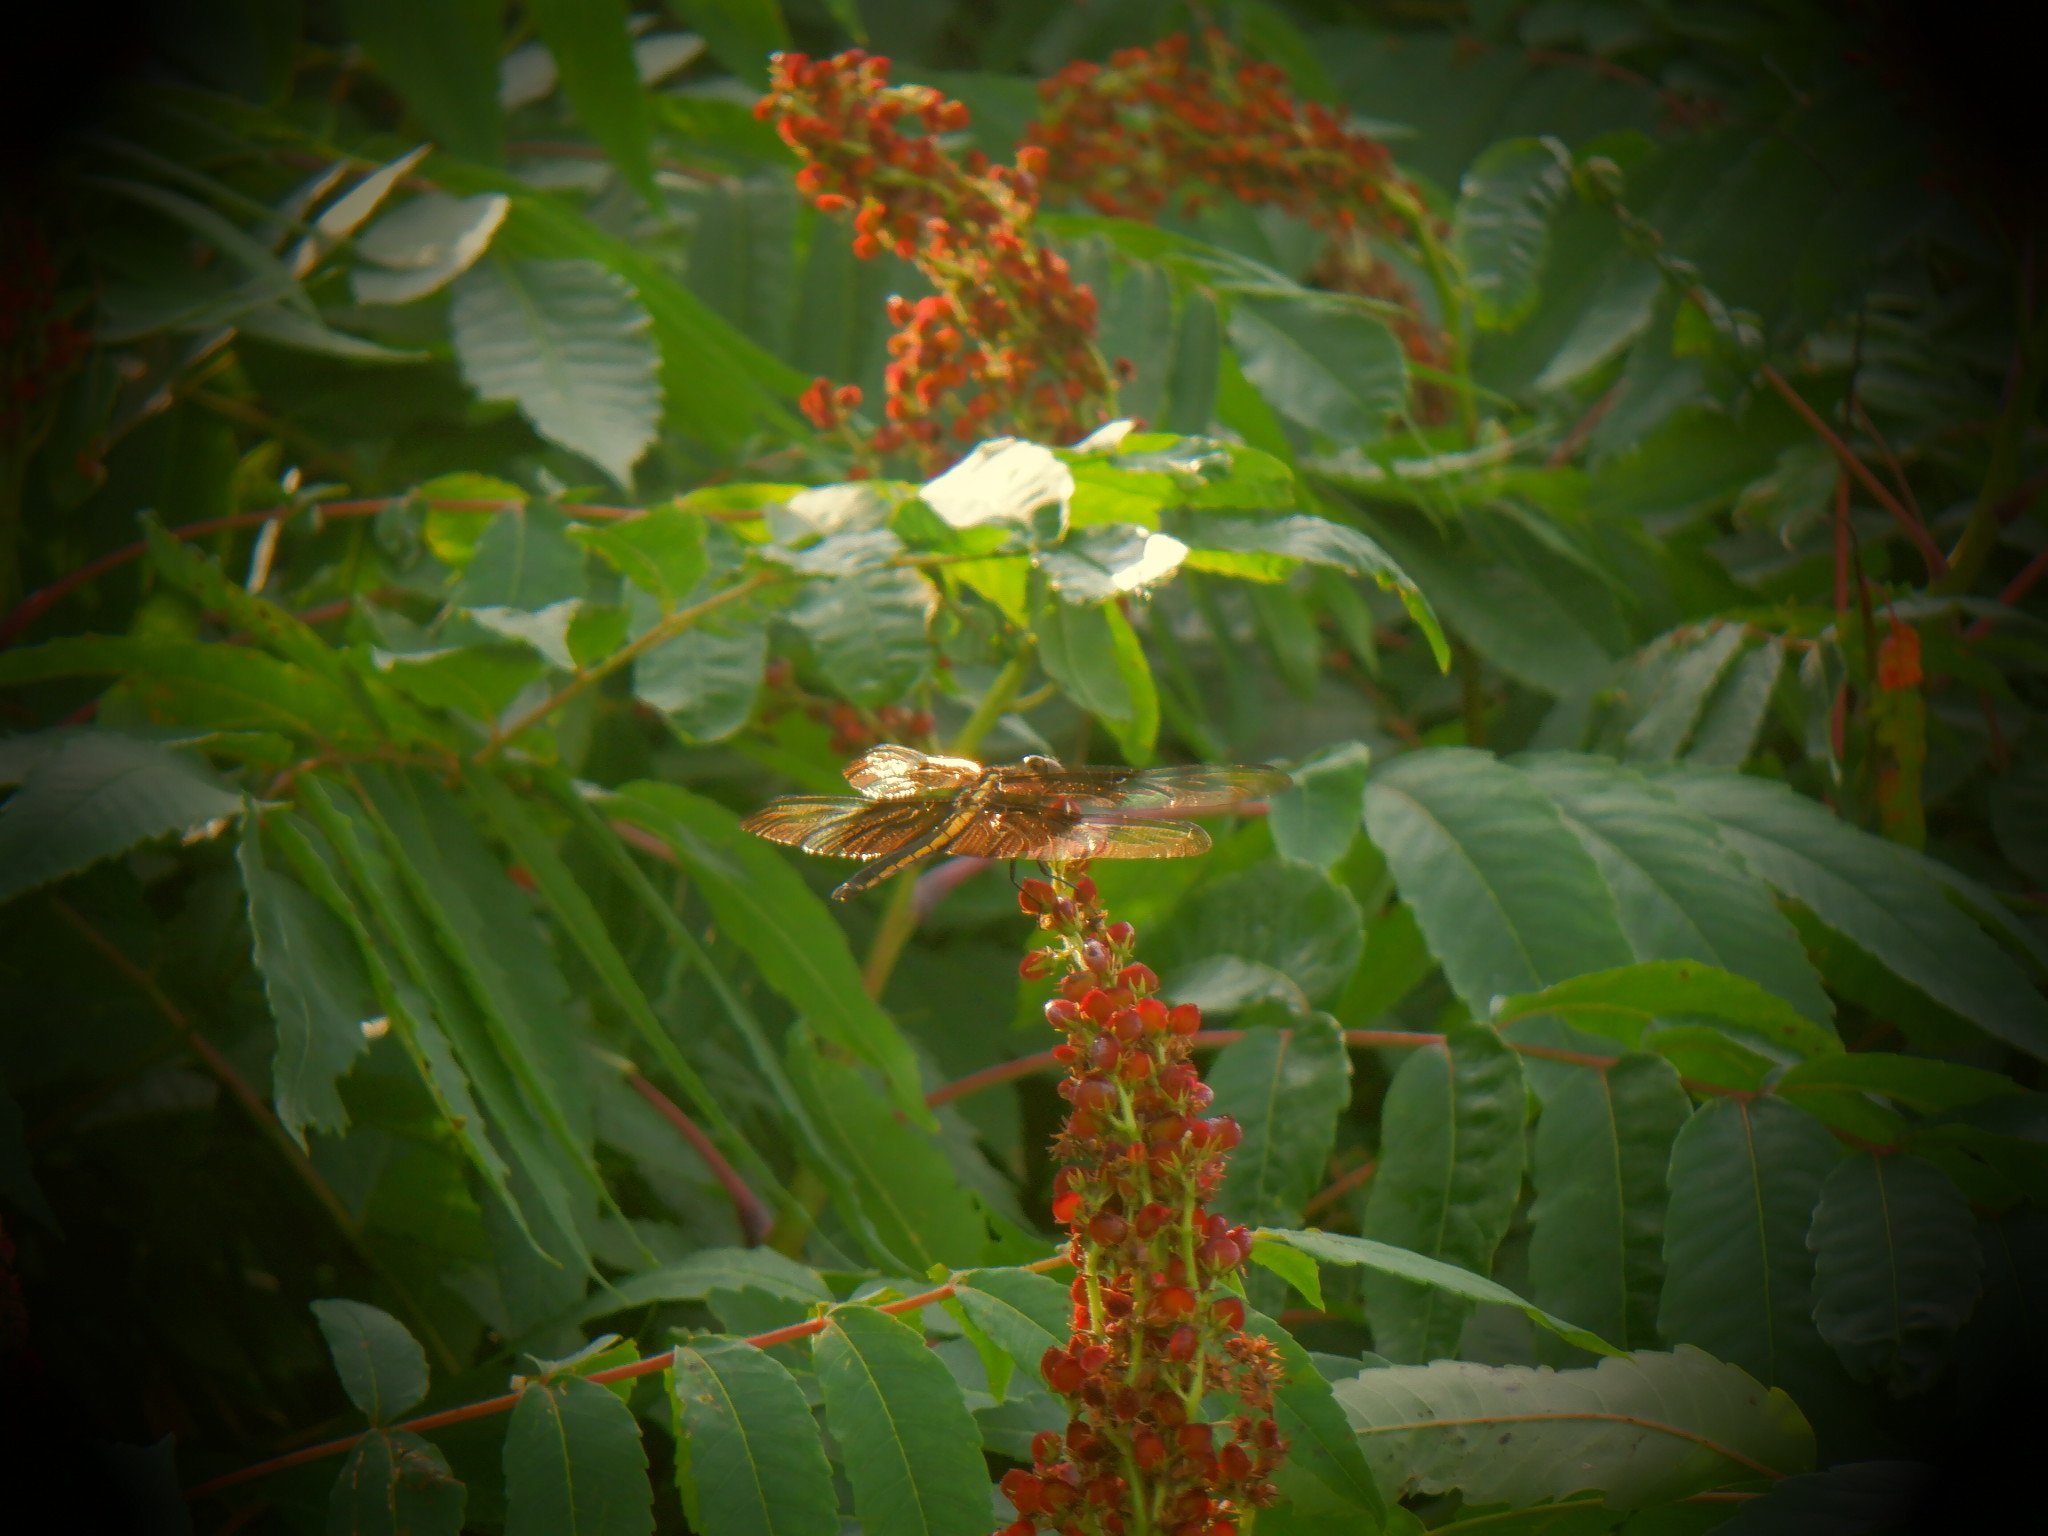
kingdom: Animalia
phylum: Arthropoda
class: Insecta
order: Odonata
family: Libellulidae
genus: Libellula
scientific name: Libellula luctuosa
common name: Widow skimmer
